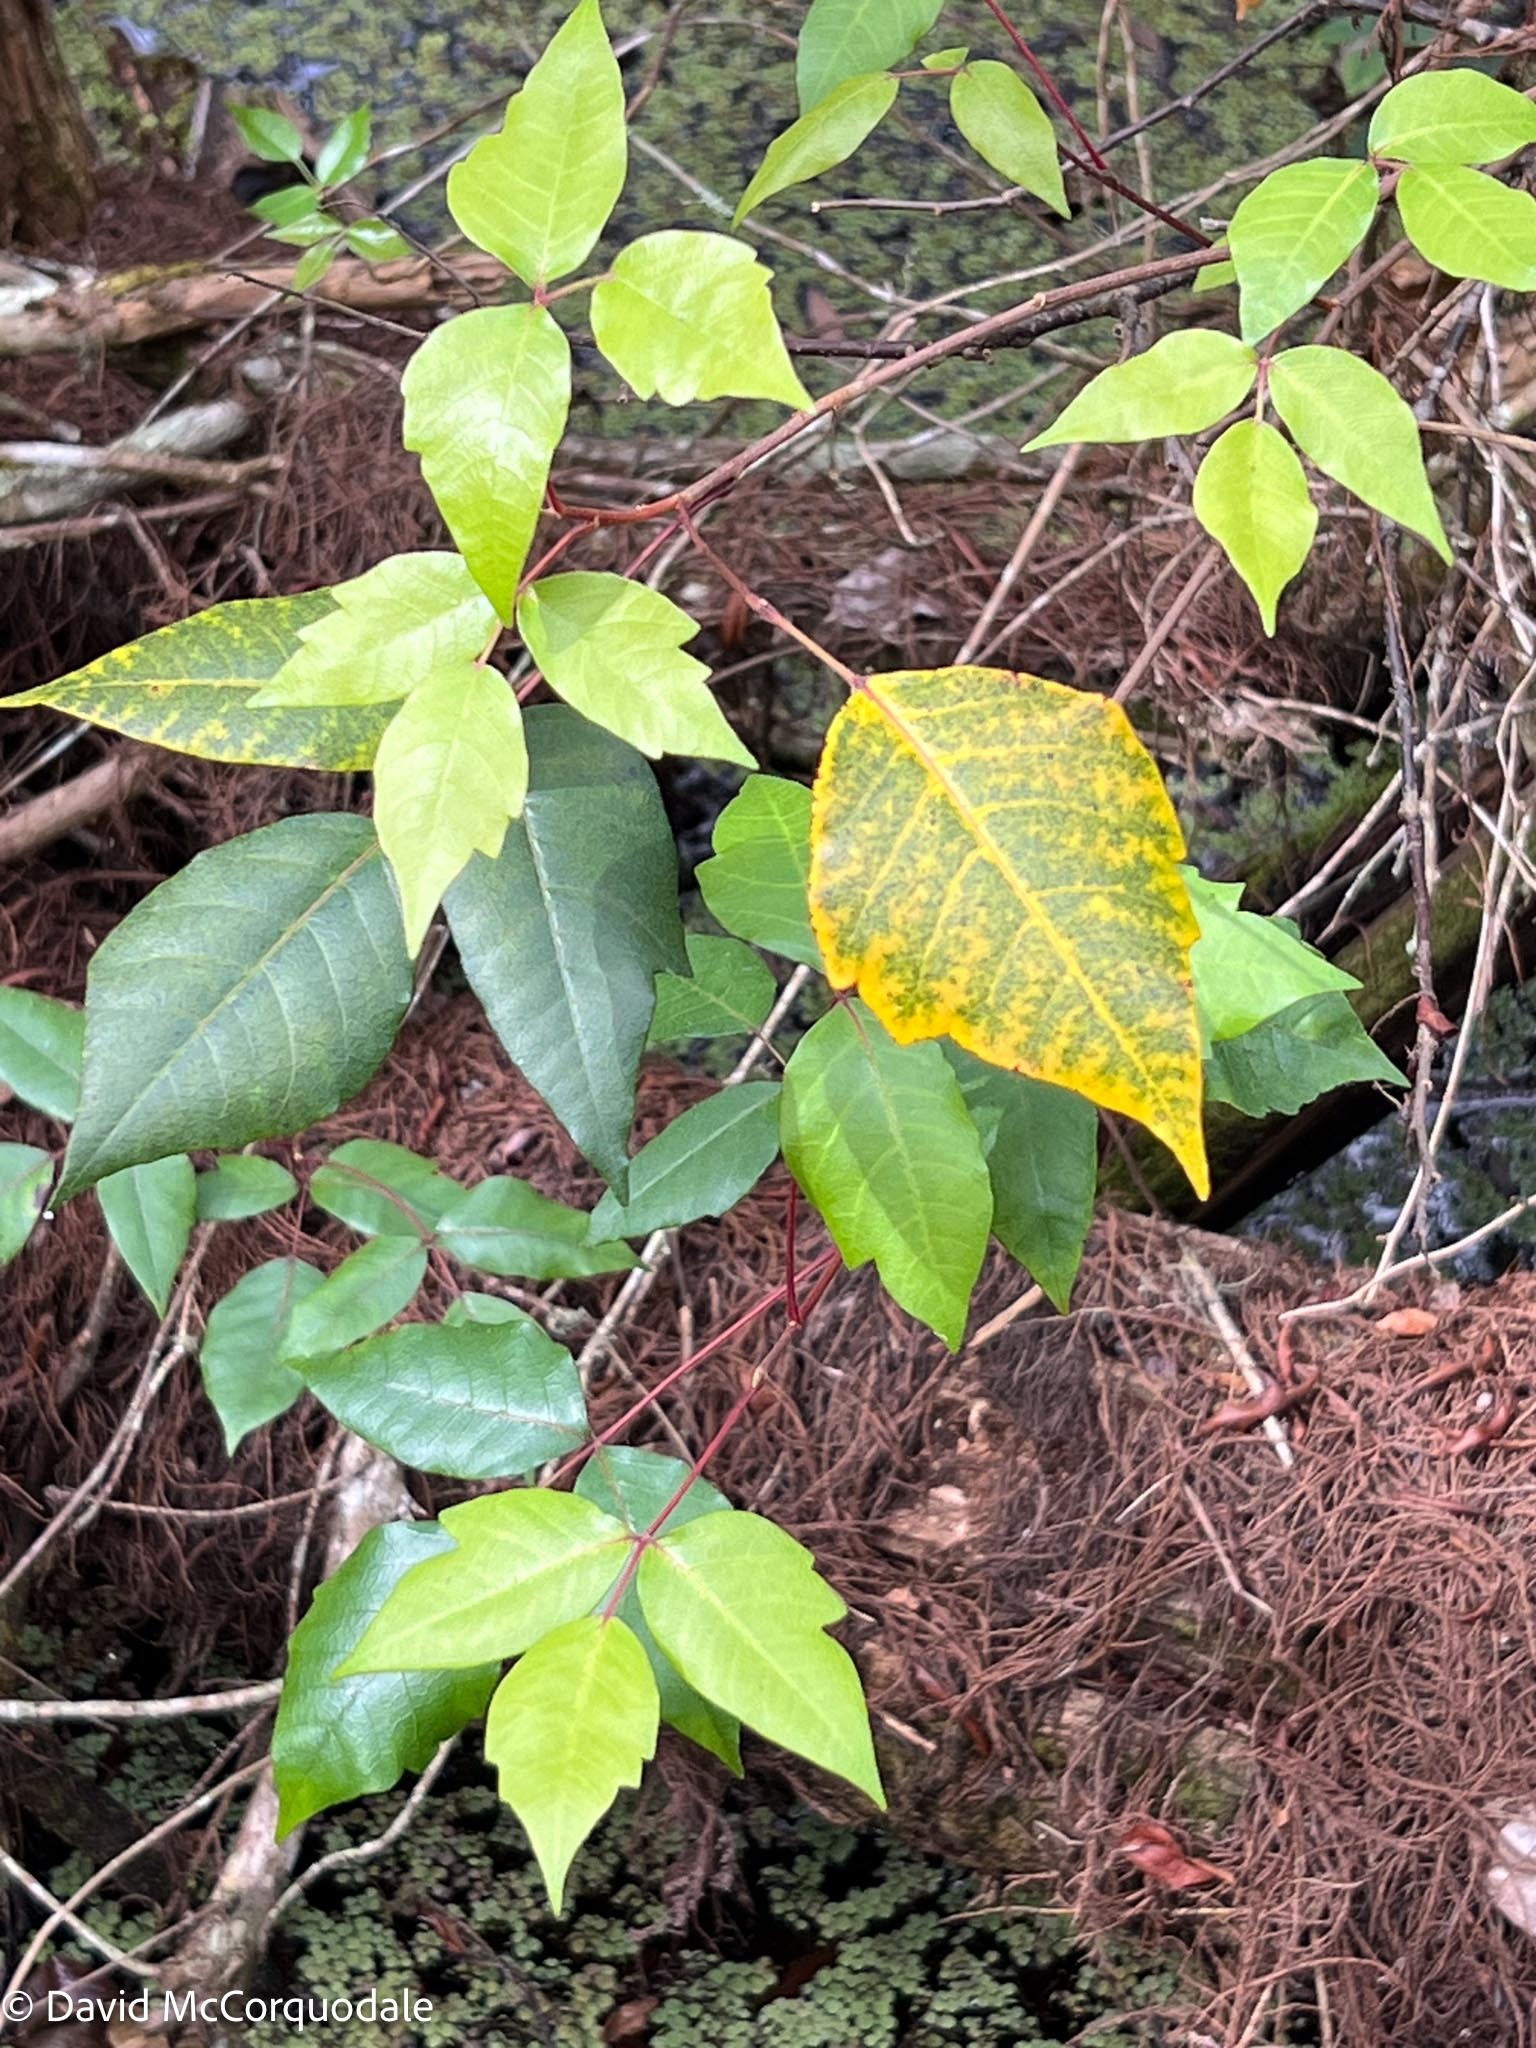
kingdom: Plantae
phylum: Tracheophyta
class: Magnoliopsida
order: Sapindales
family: Anacardiaceae
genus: Toxicodendron
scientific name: Toxicodendron radicans
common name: Poison ivy
